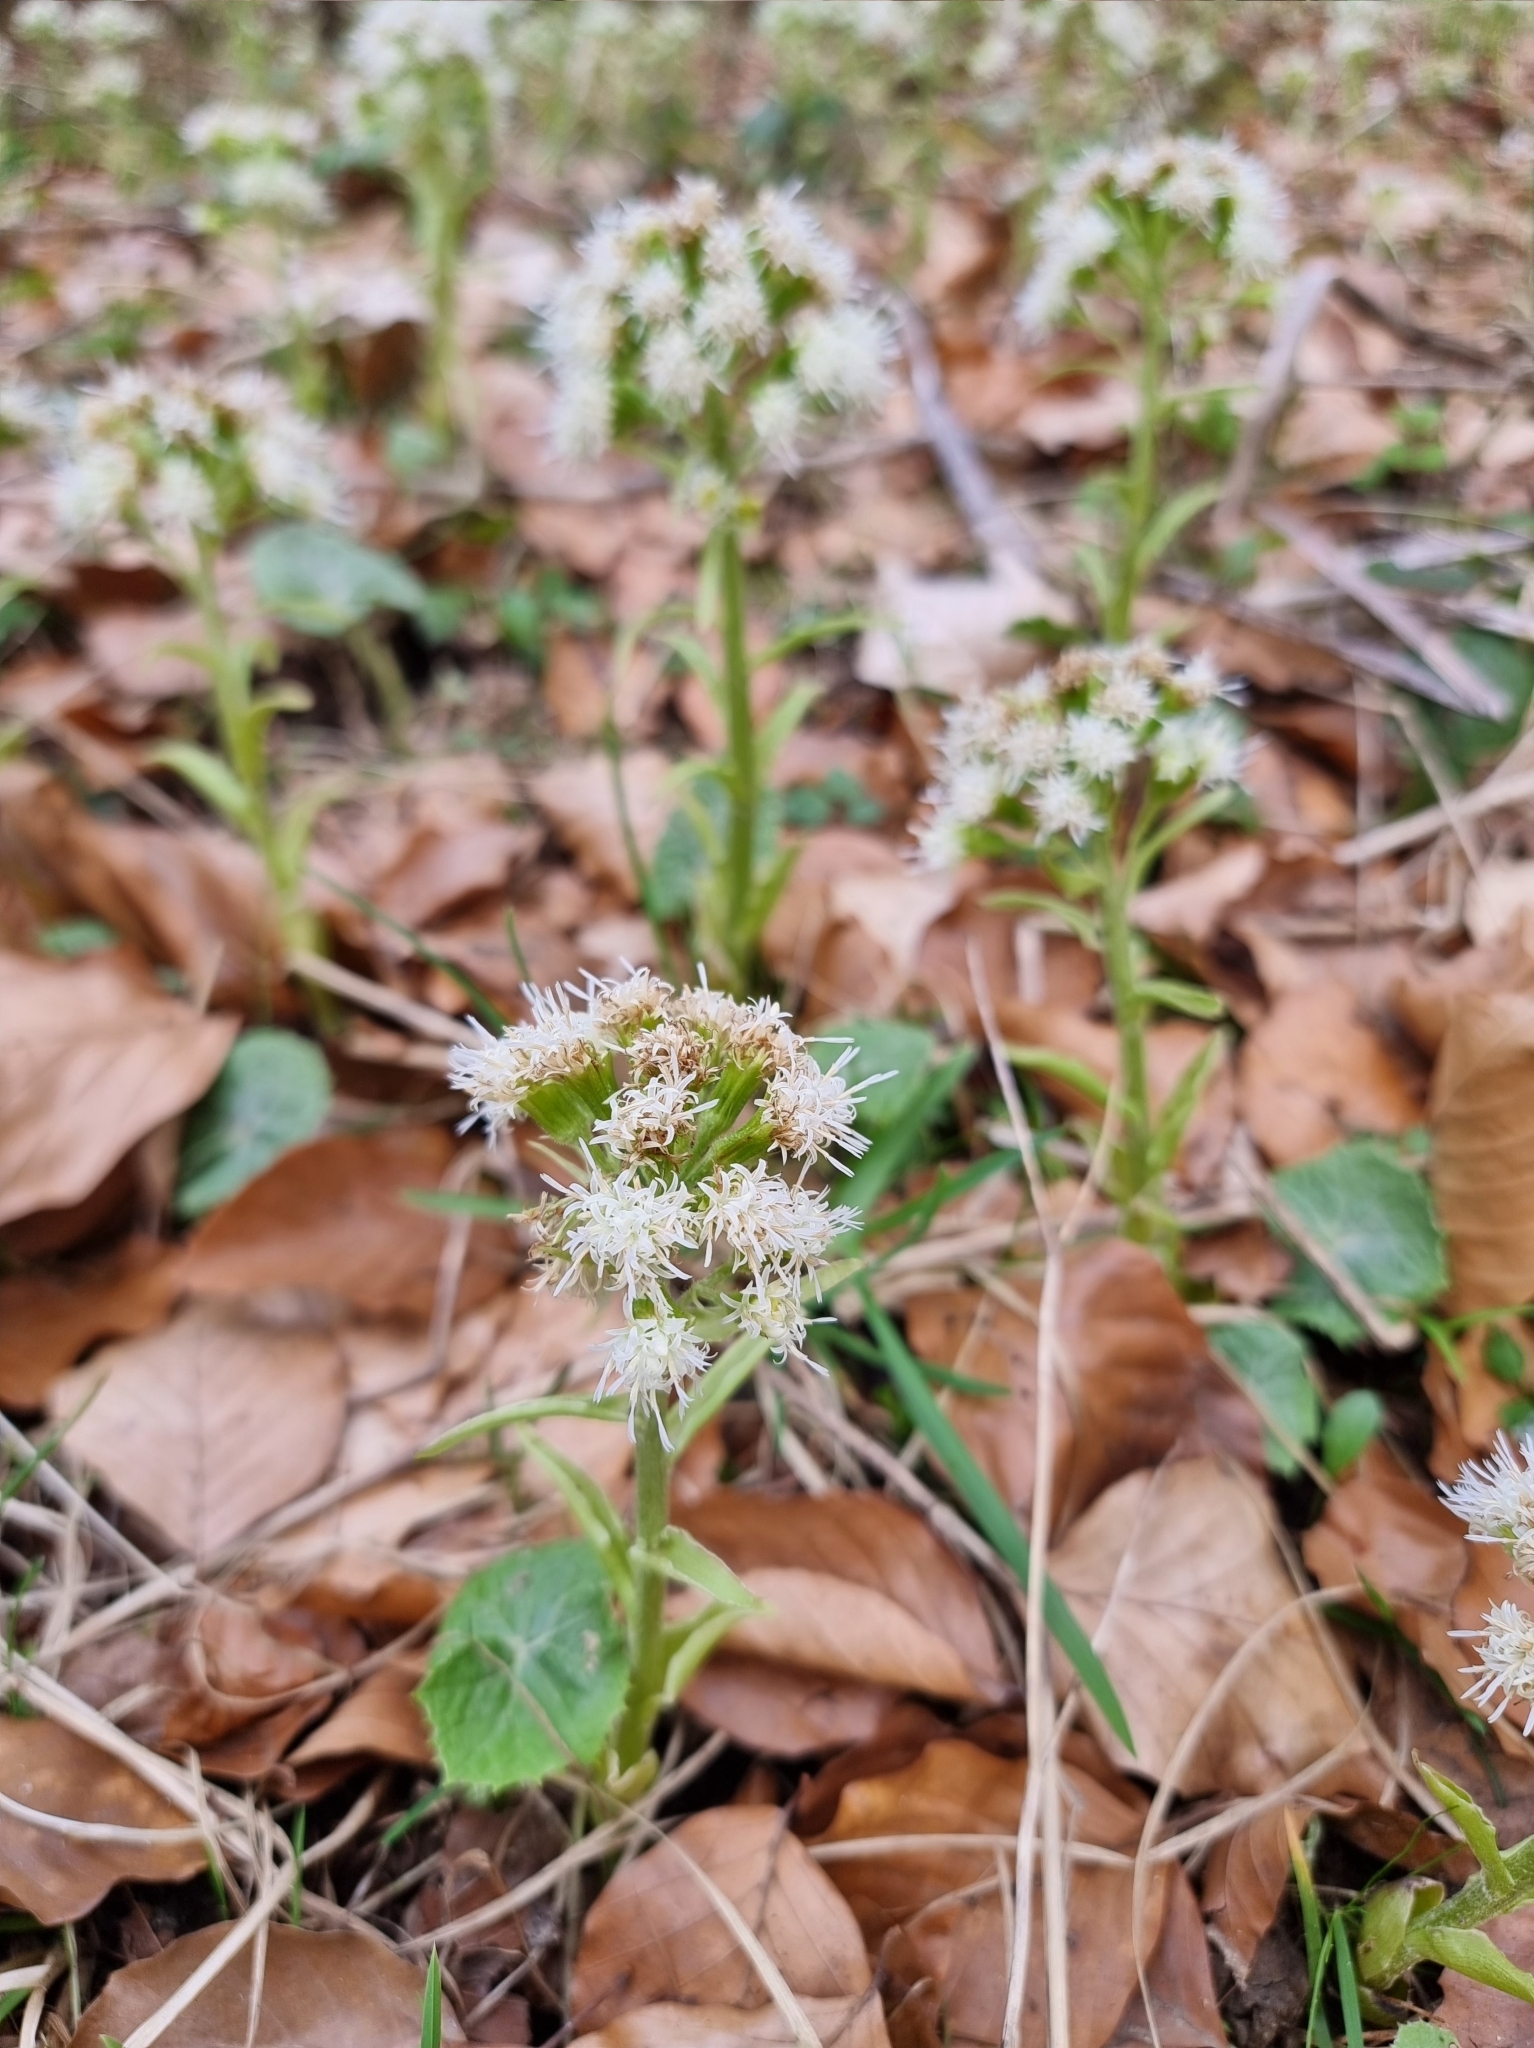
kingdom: Plantae
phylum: Tracheophyta
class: Magnoliopsida
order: Asterales
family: Asteraceae
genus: Petasites
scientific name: Petasites albus
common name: White butterbur
